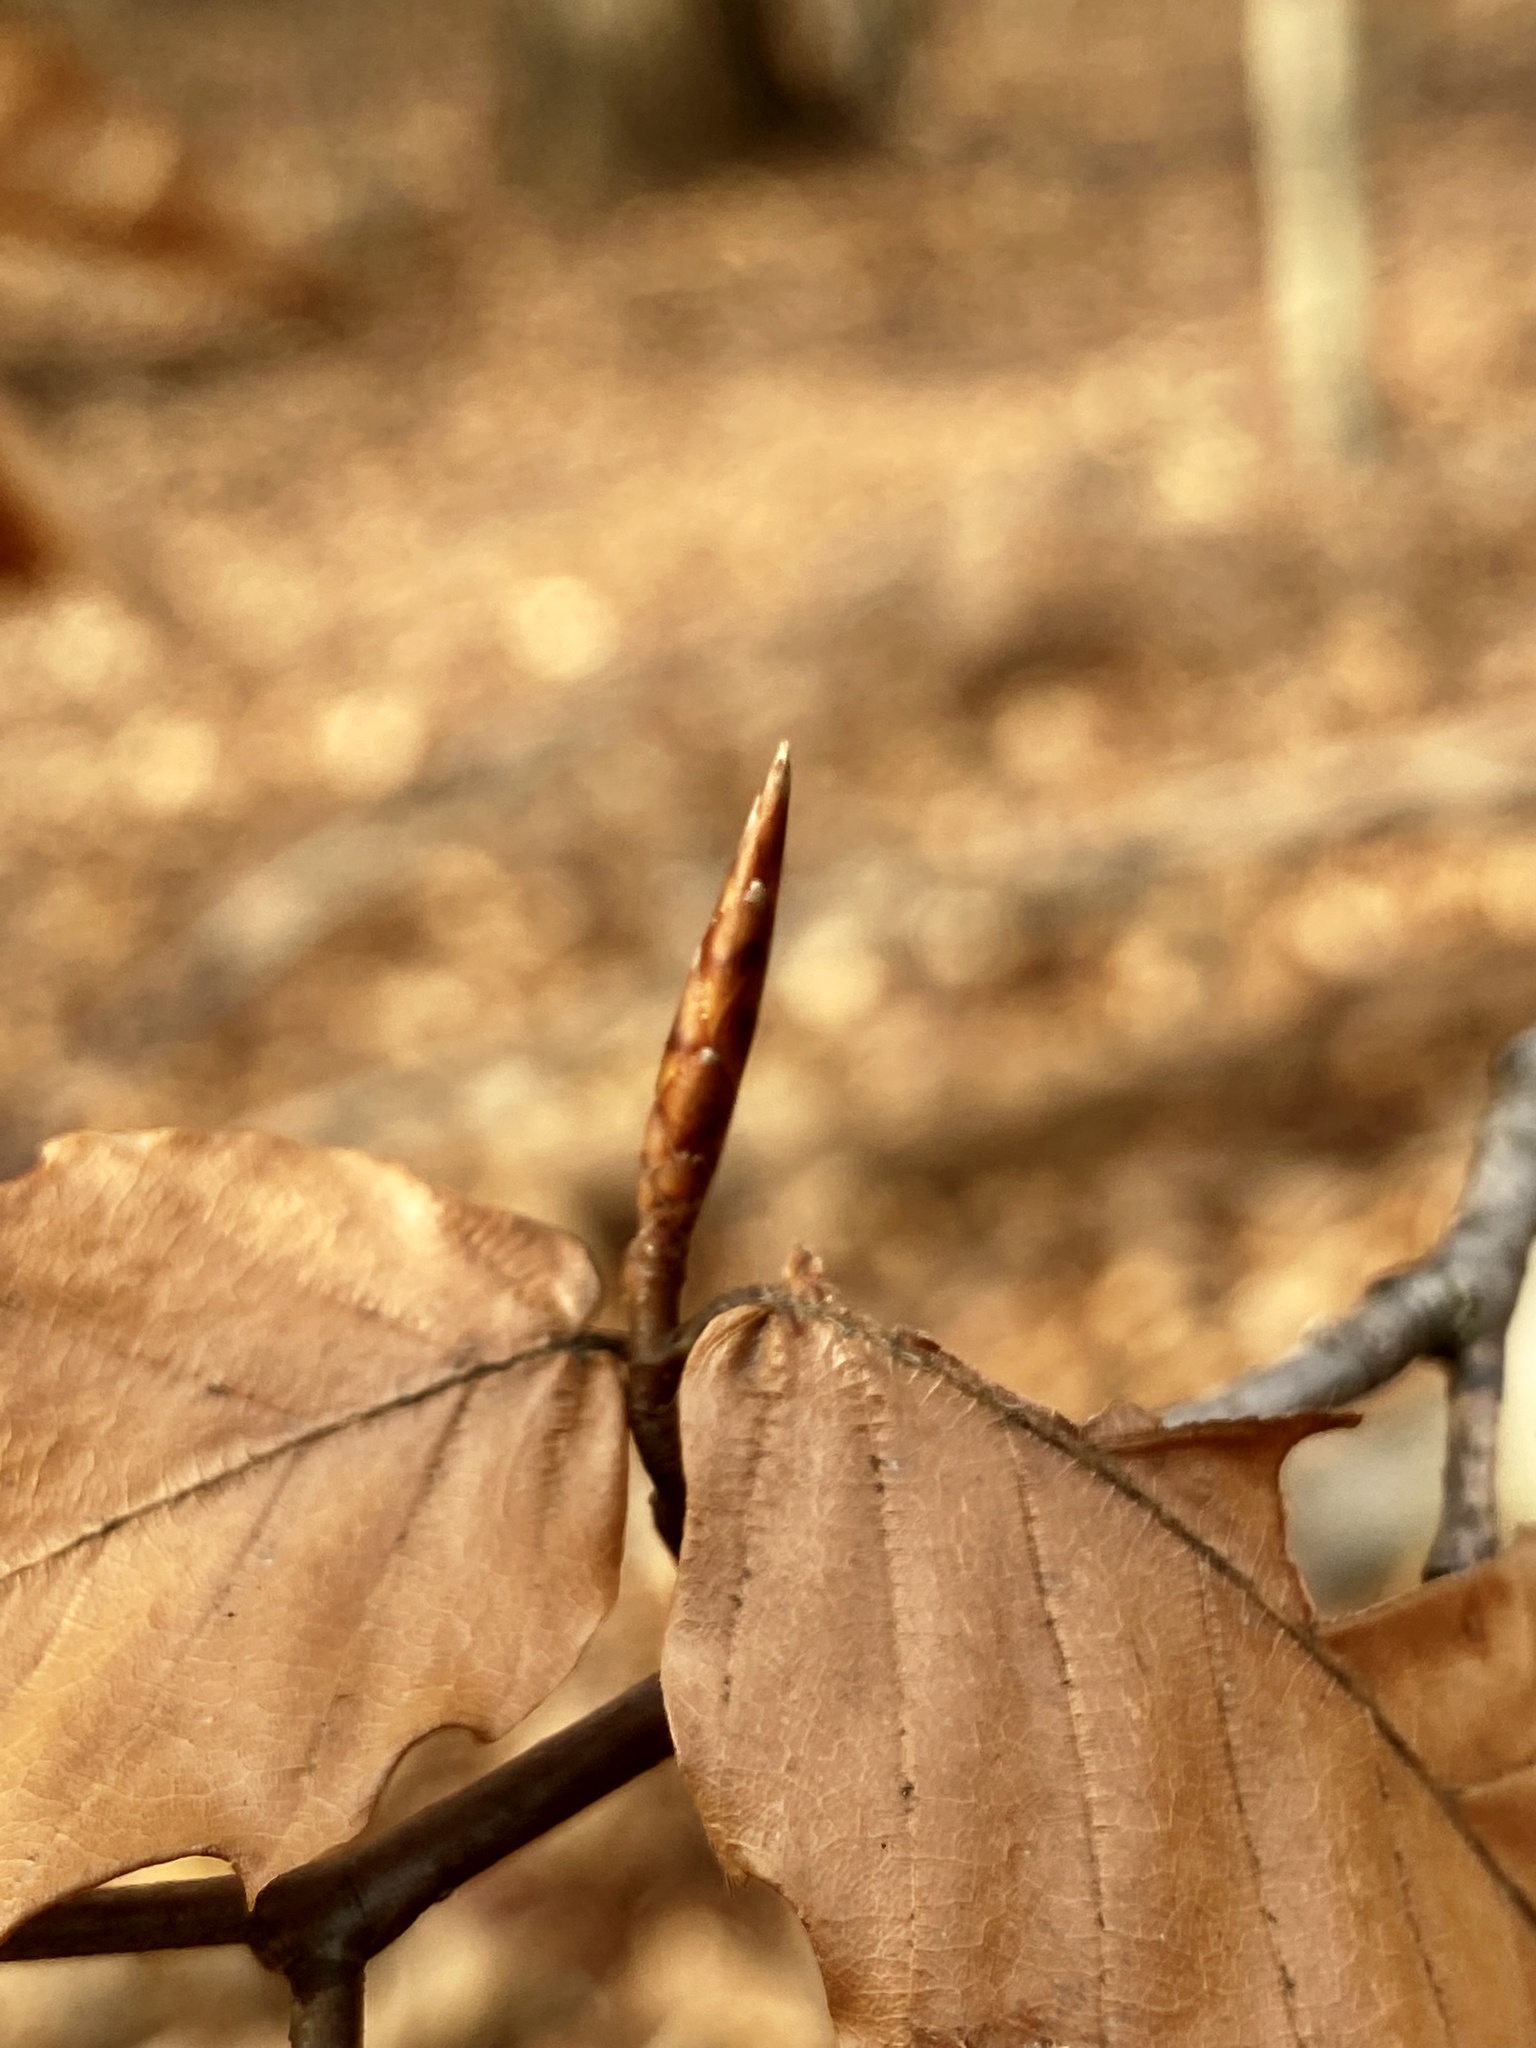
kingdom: Plantae
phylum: Tracheophyta
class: Magnoliopsida
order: Fagales
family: Fagaceae
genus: Fagus
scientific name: Fagus grandifolia
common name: American beech
